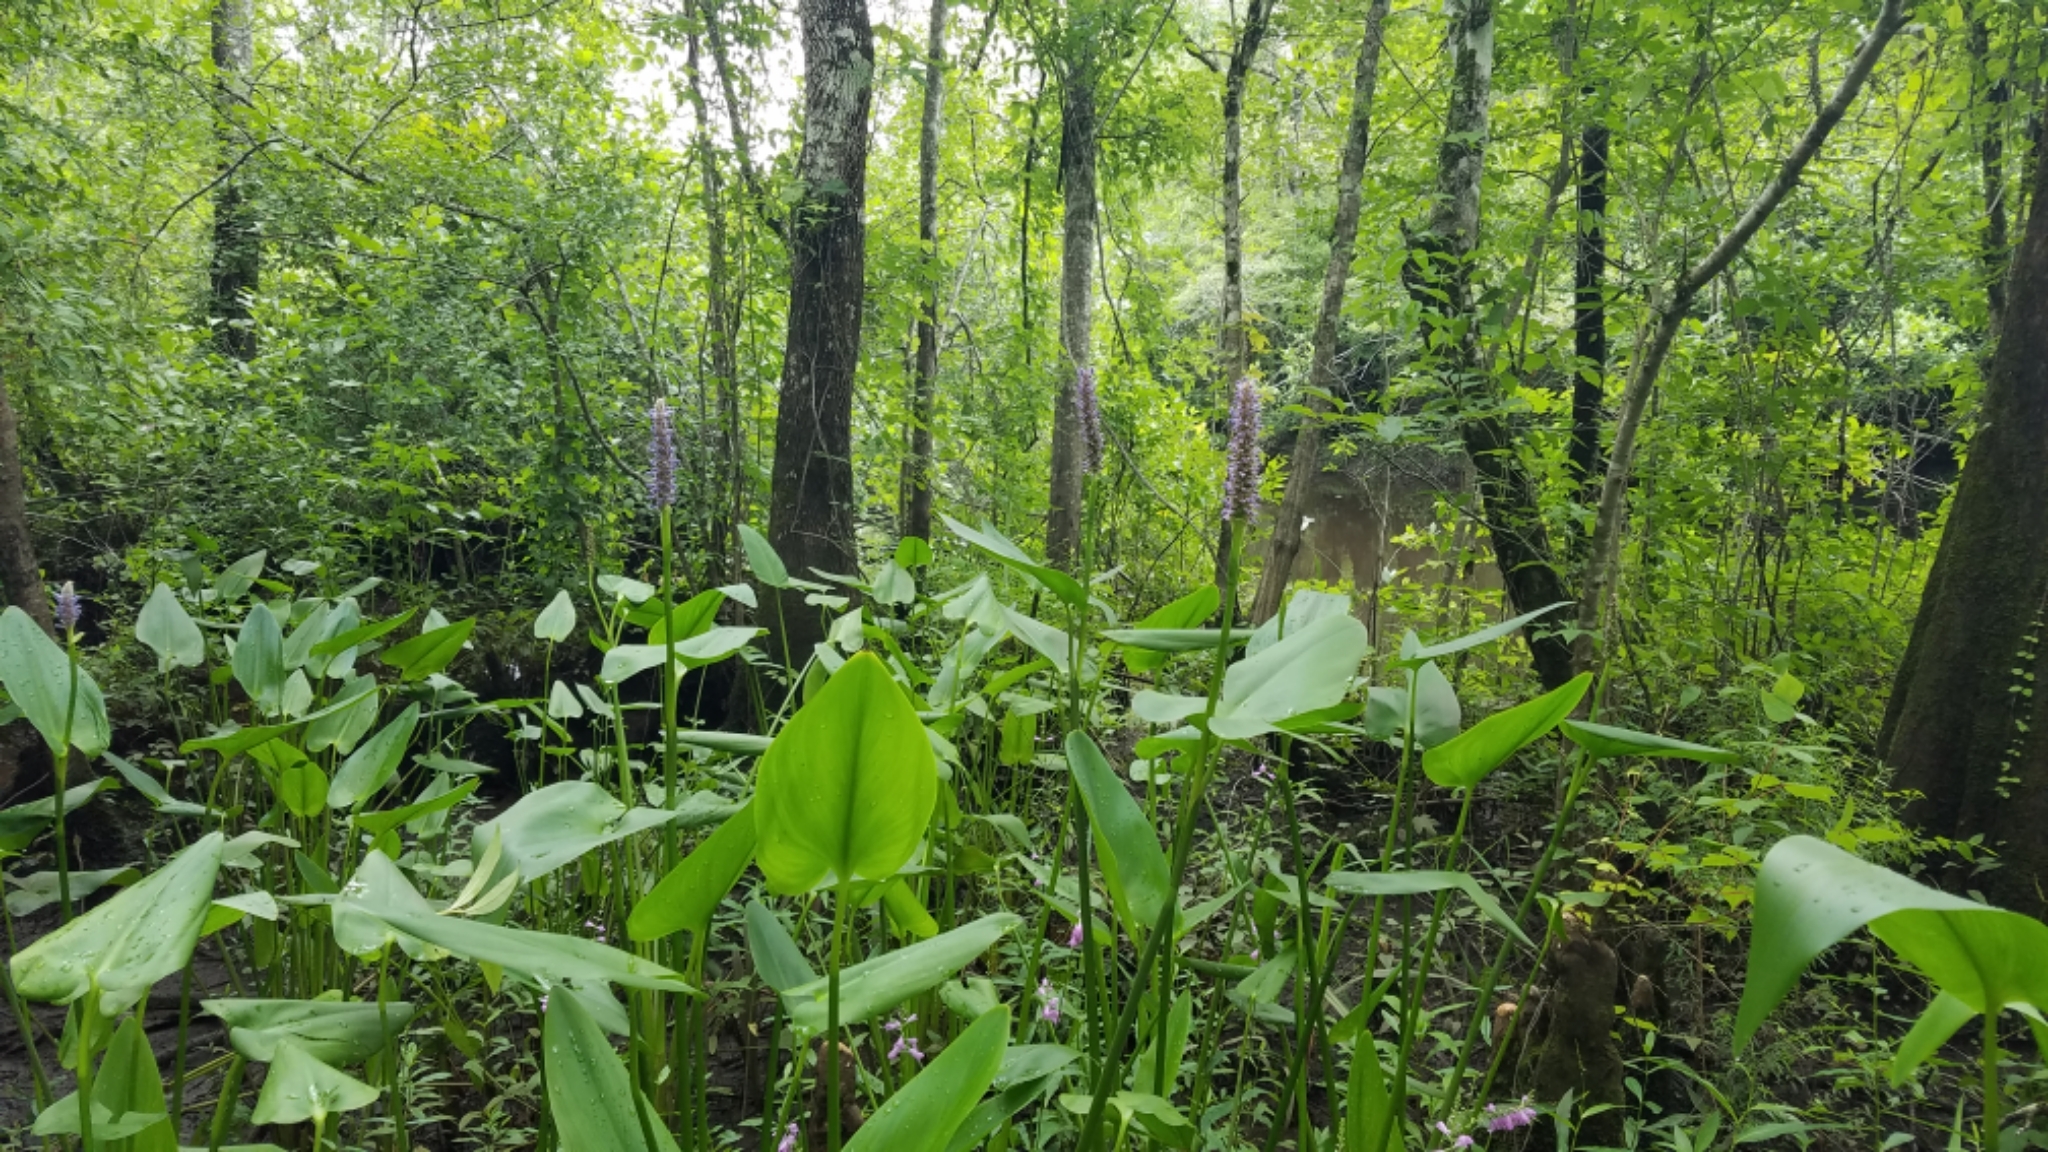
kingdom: Plantae
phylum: Tracheophyta
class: Liliopsida
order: Commelinales
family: Pontederiaceae
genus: Pontederia
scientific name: Pontederia cordata
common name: Pickerelweed
